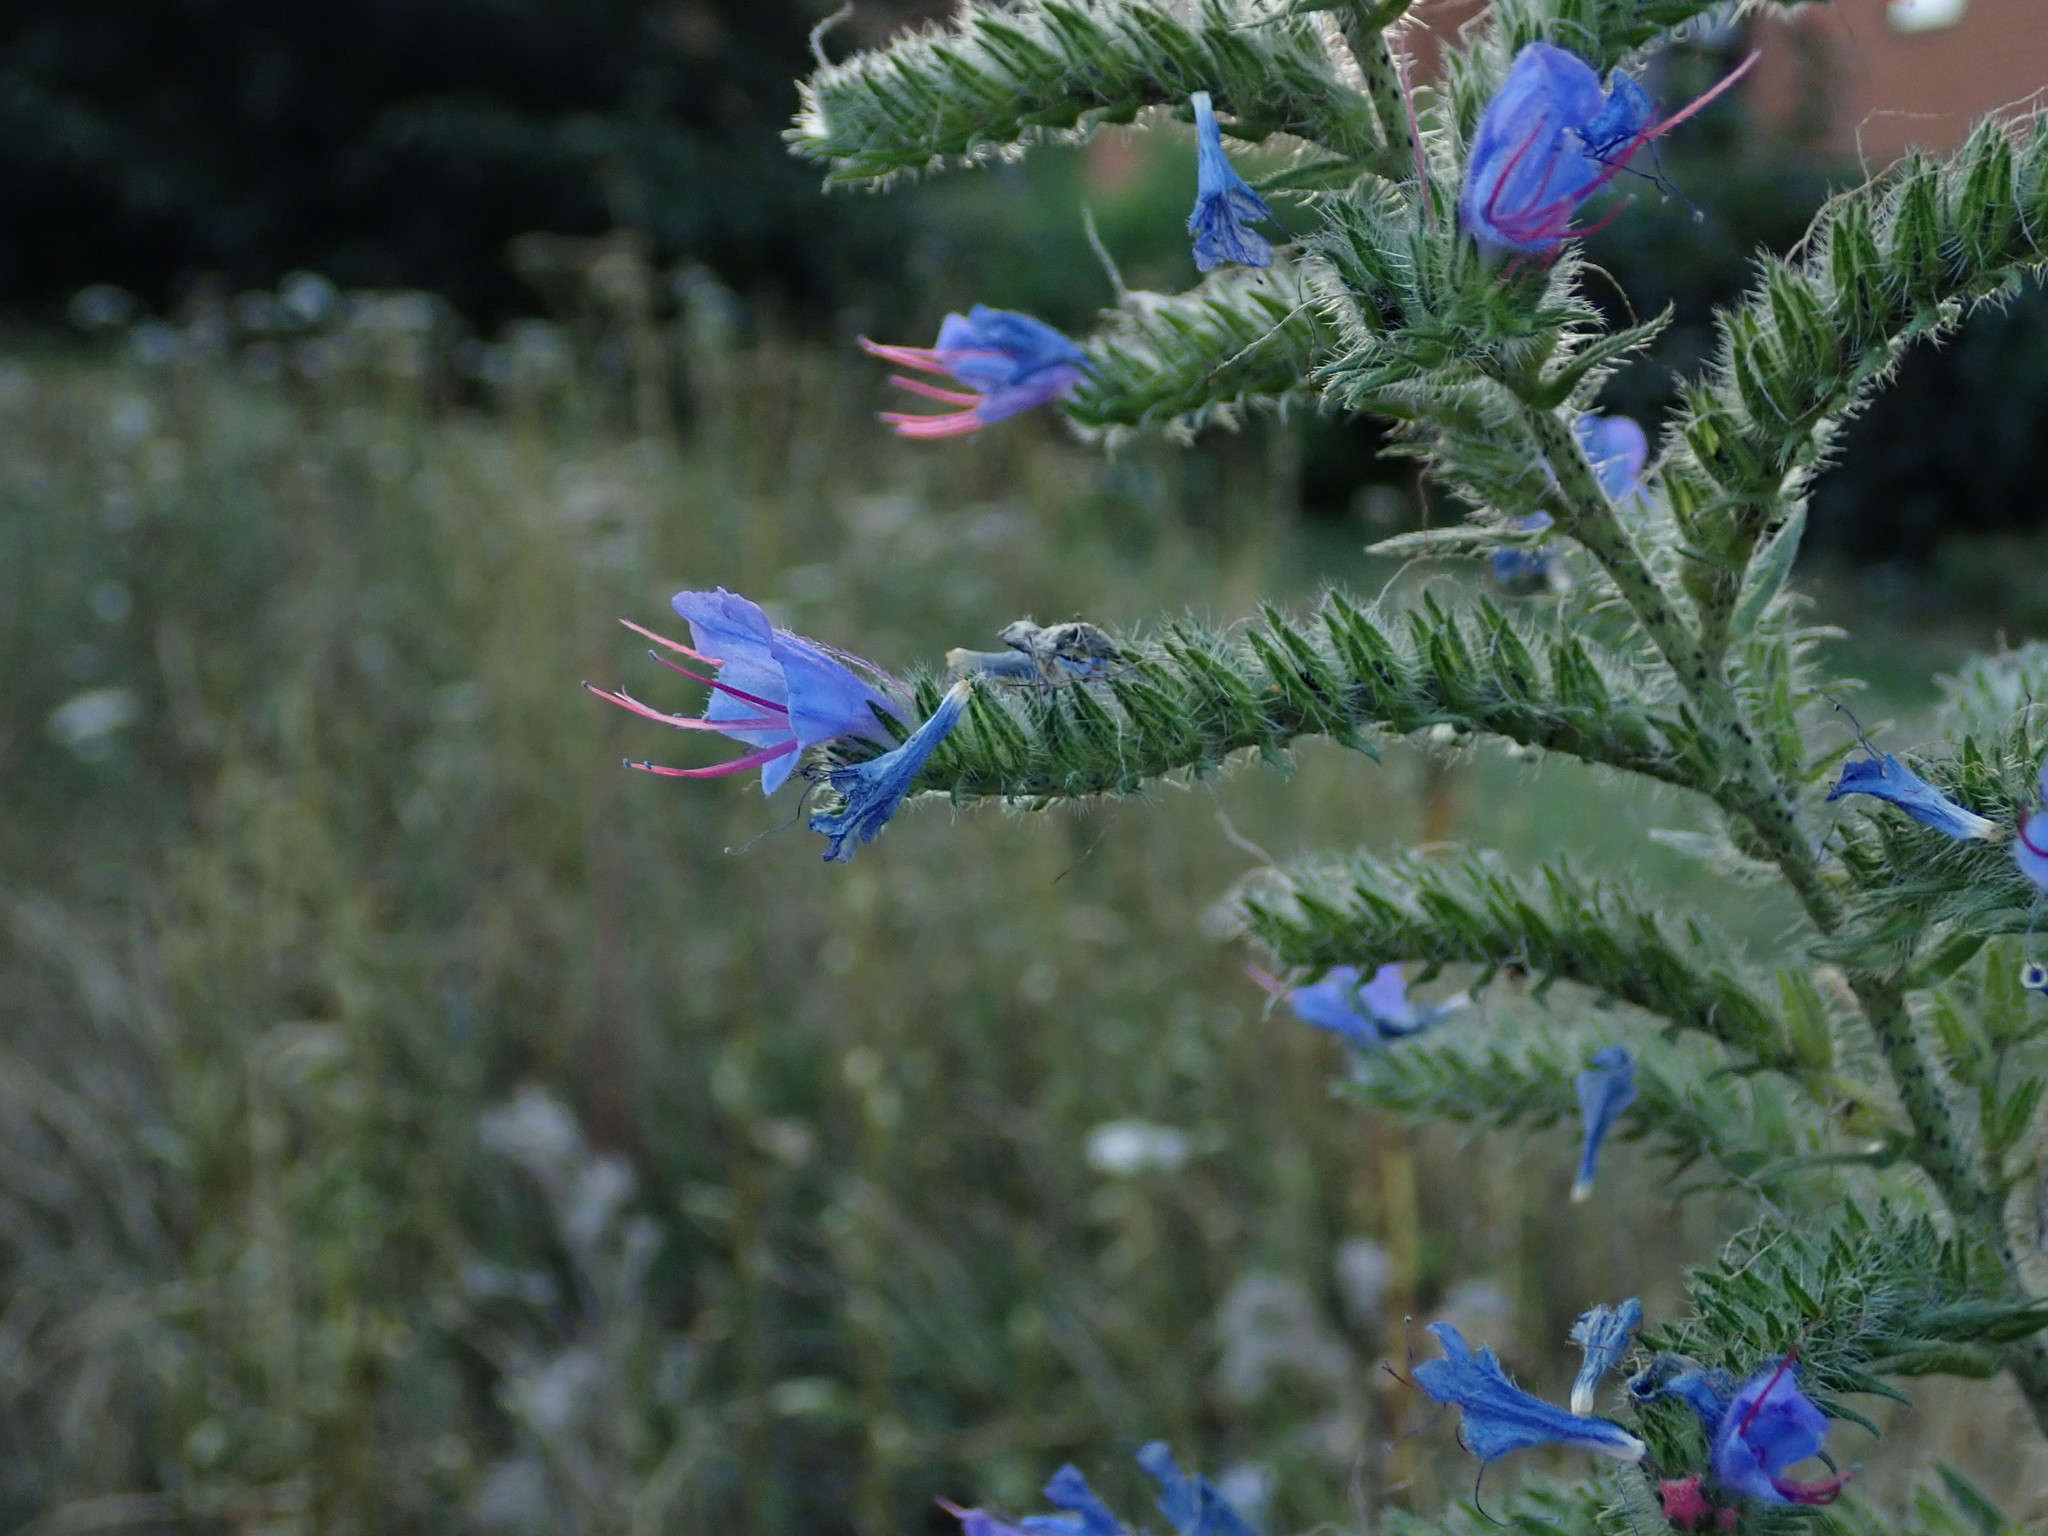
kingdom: Plantae
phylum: Tracheophyta
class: Magnoliopsida
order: Boraginales
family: Boraginaceae
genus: Echium
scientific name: Echium vulgare
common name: Common viper's bugloss
